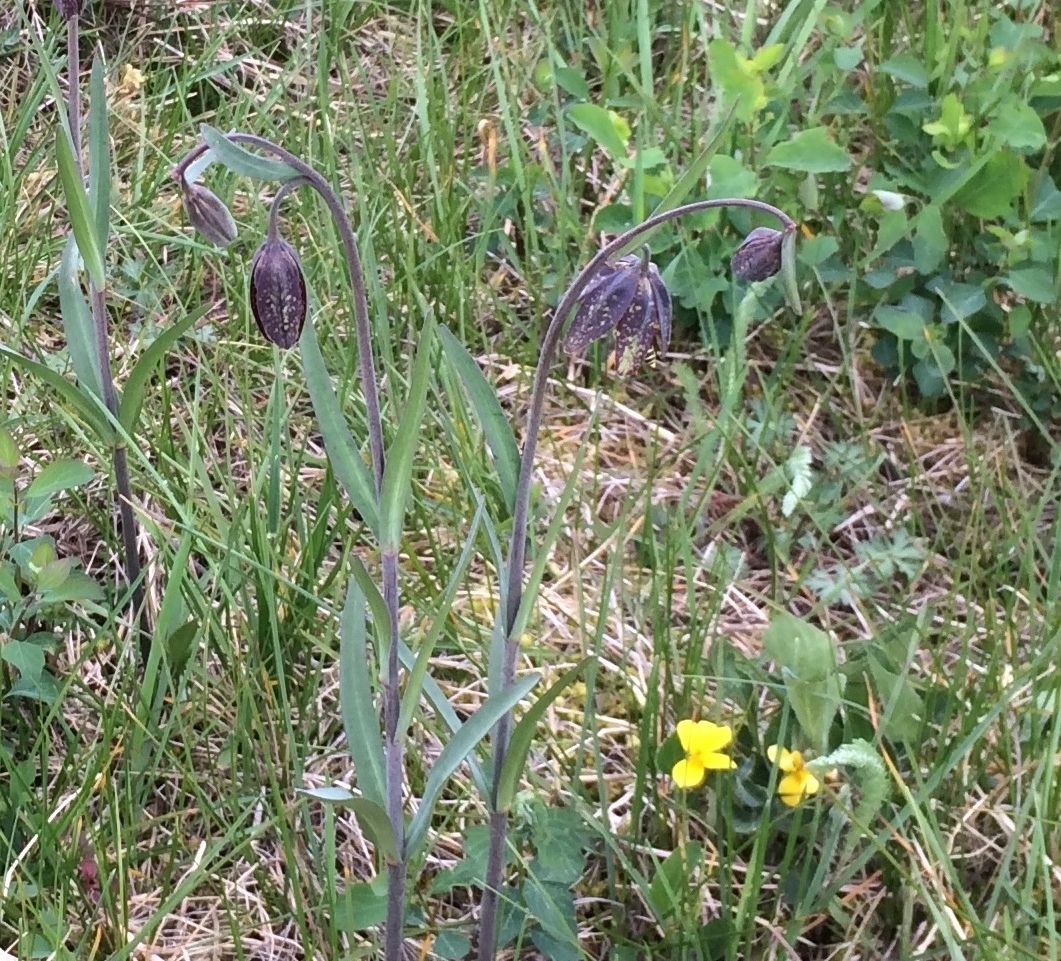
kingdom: Plantae
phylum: Tracheophyta
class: Liliopsida
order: Liliales
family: Liliaceae
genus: Fritillaria
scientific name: Fritillaria affinis
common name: Ojai fritillary
